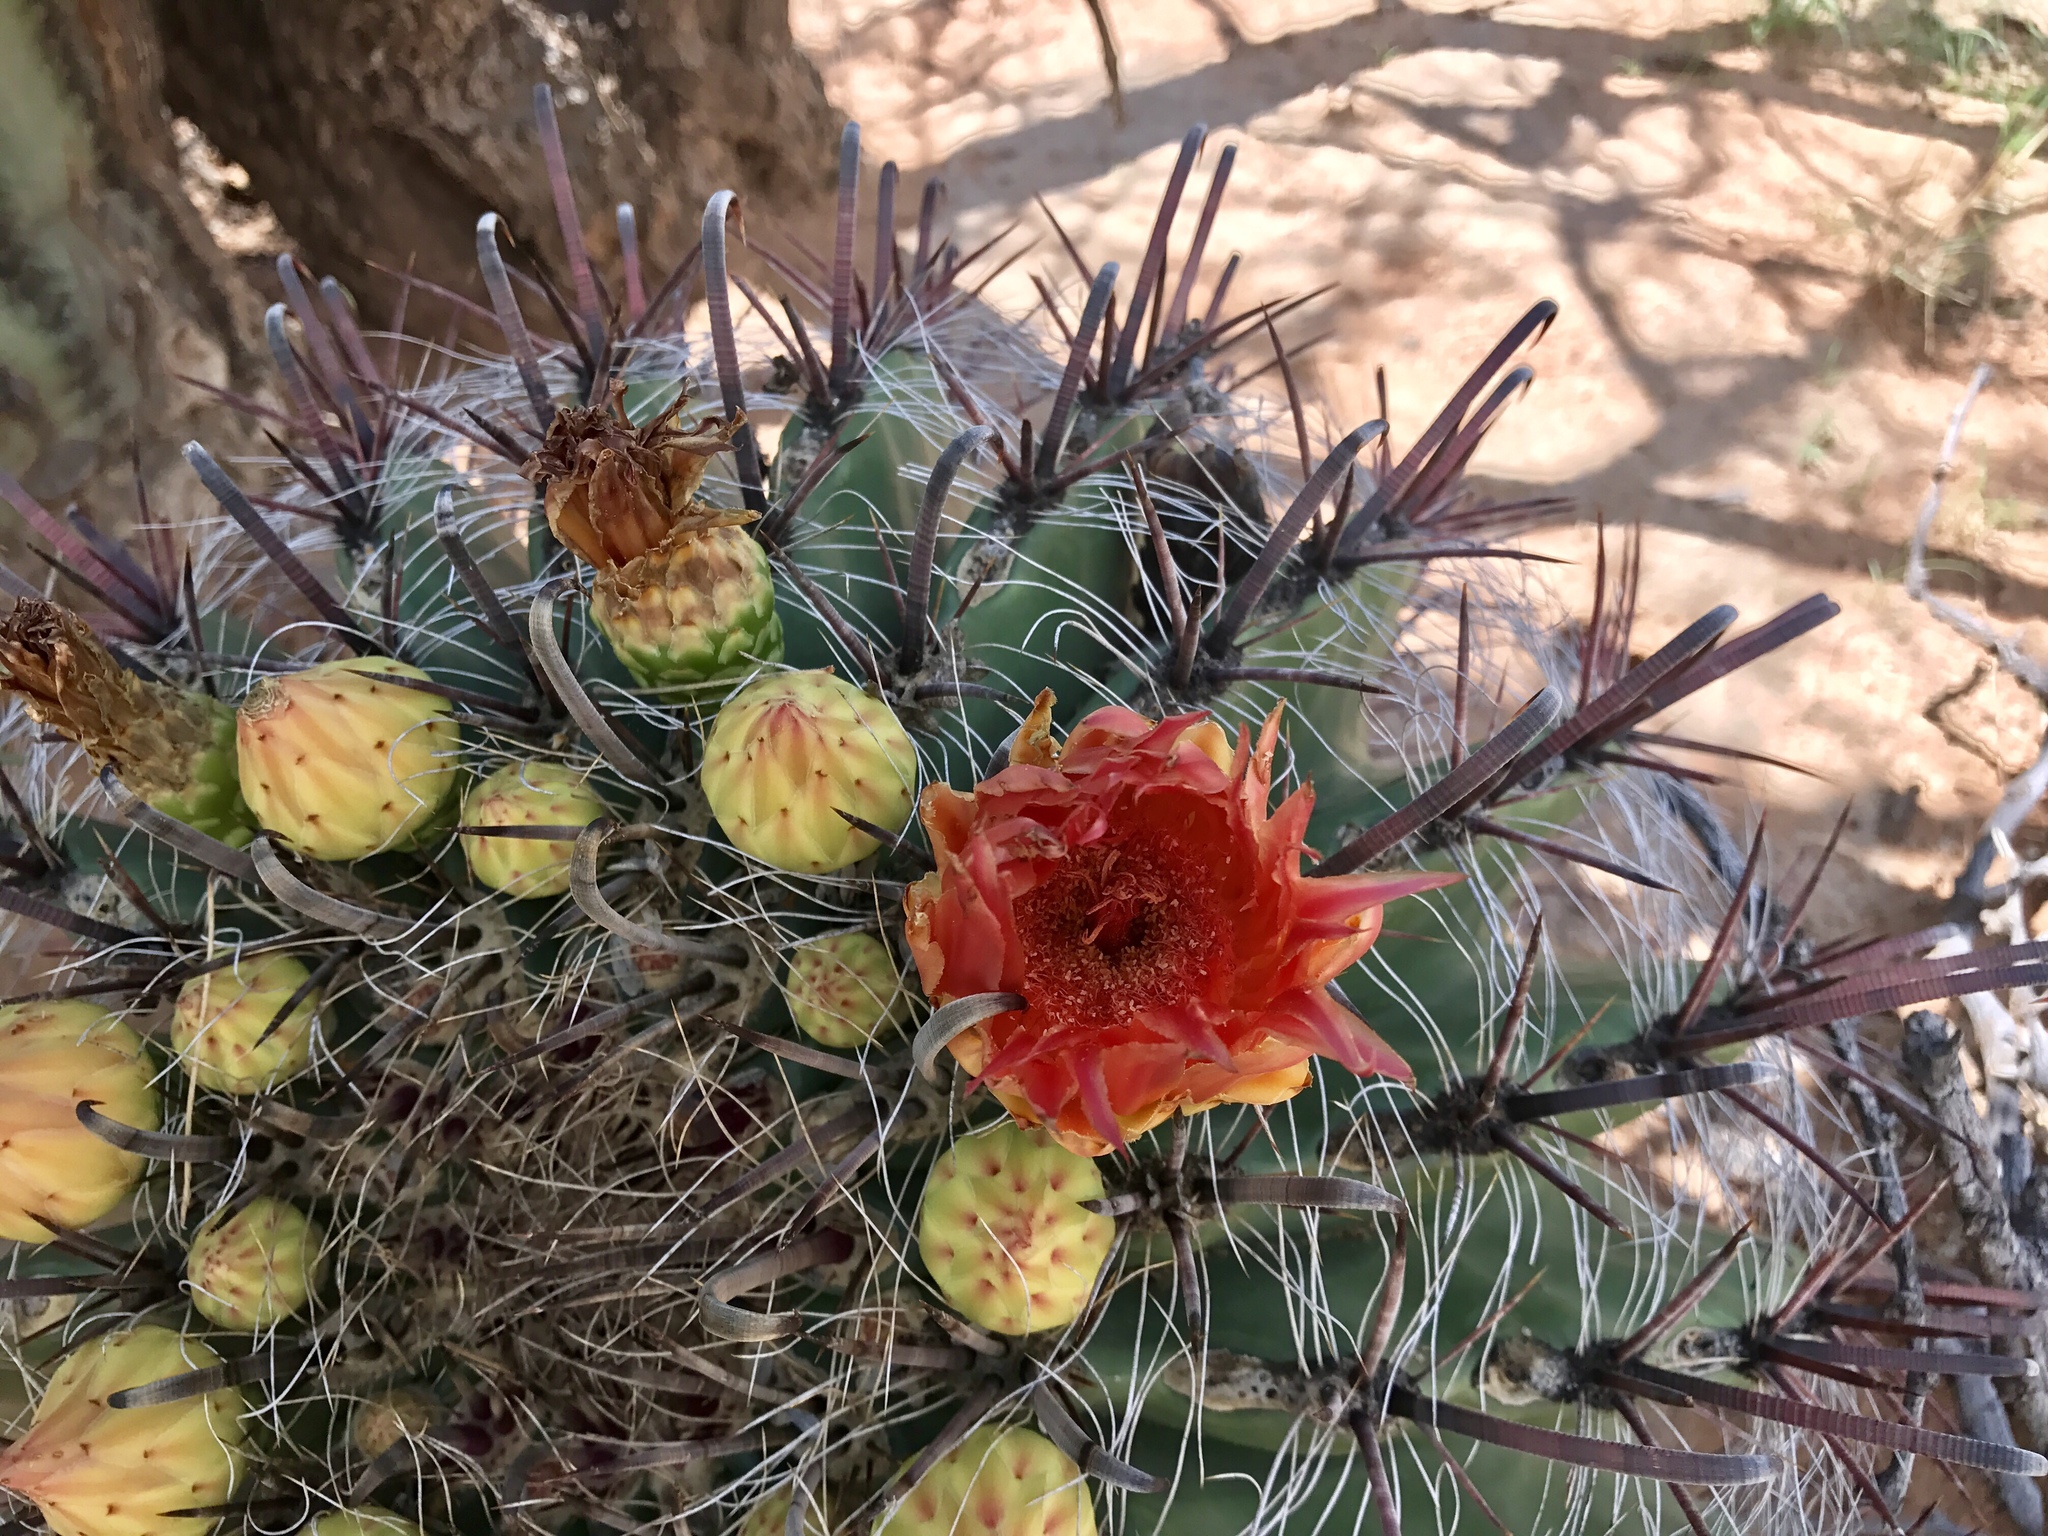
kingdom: Plantae
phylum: Tracheophyta
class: Magnoliopsida
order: Caryophyllales
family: Cactaceae
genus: Ferocactus
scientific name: Ferocactus wislizeni
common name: Candy barrel cactus
